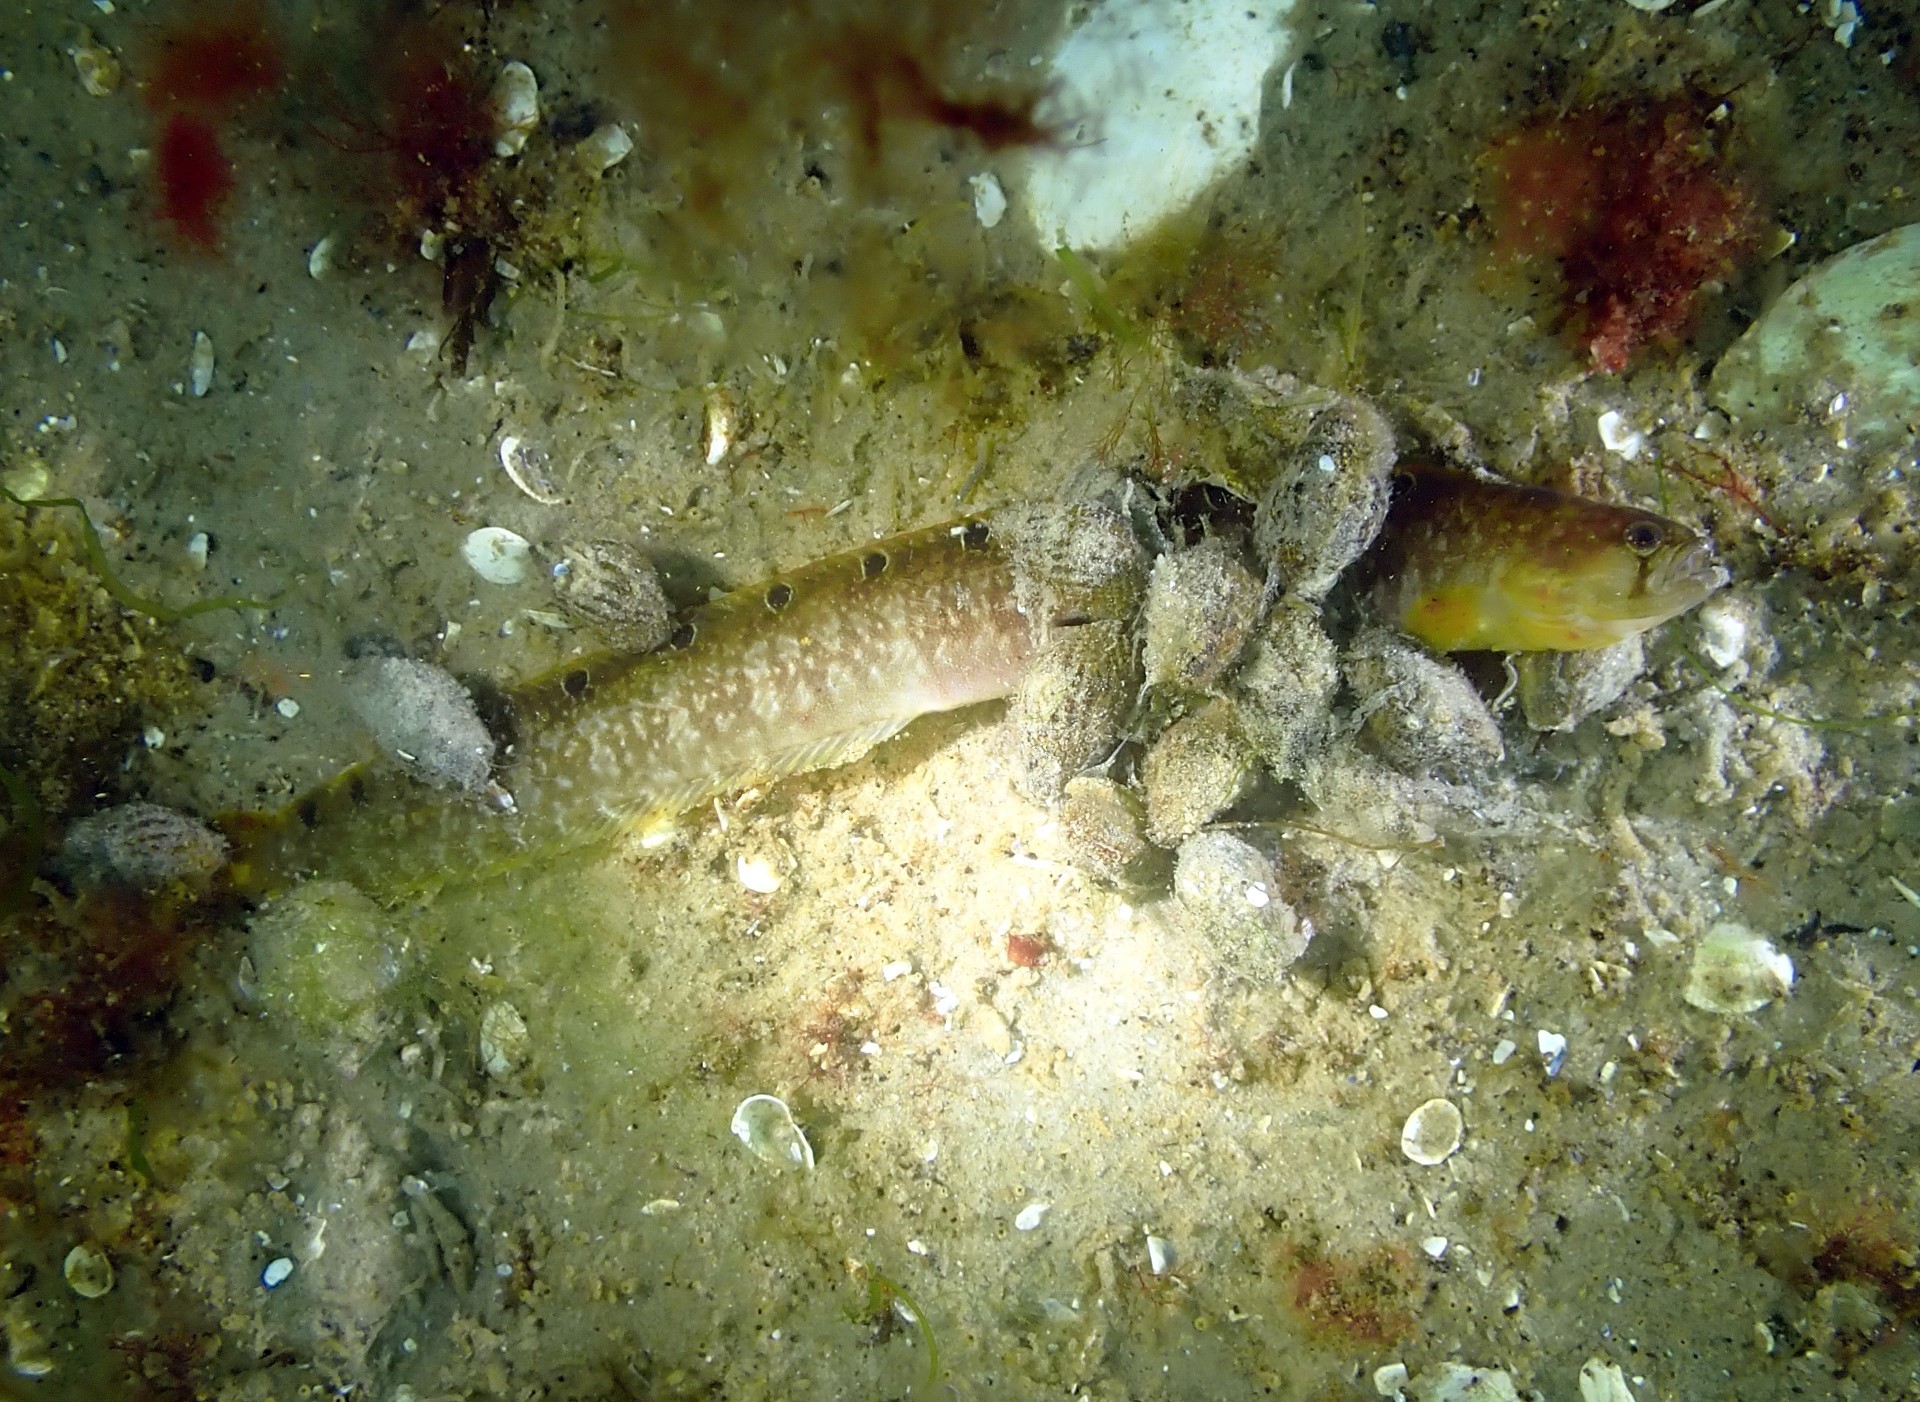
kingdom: Animalia
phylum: Mollusca
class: Gastropoda
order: Neogastropoda
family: Nassariidae
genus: Tritia
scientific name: Tritia reticulata
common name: Netted dog whelk
